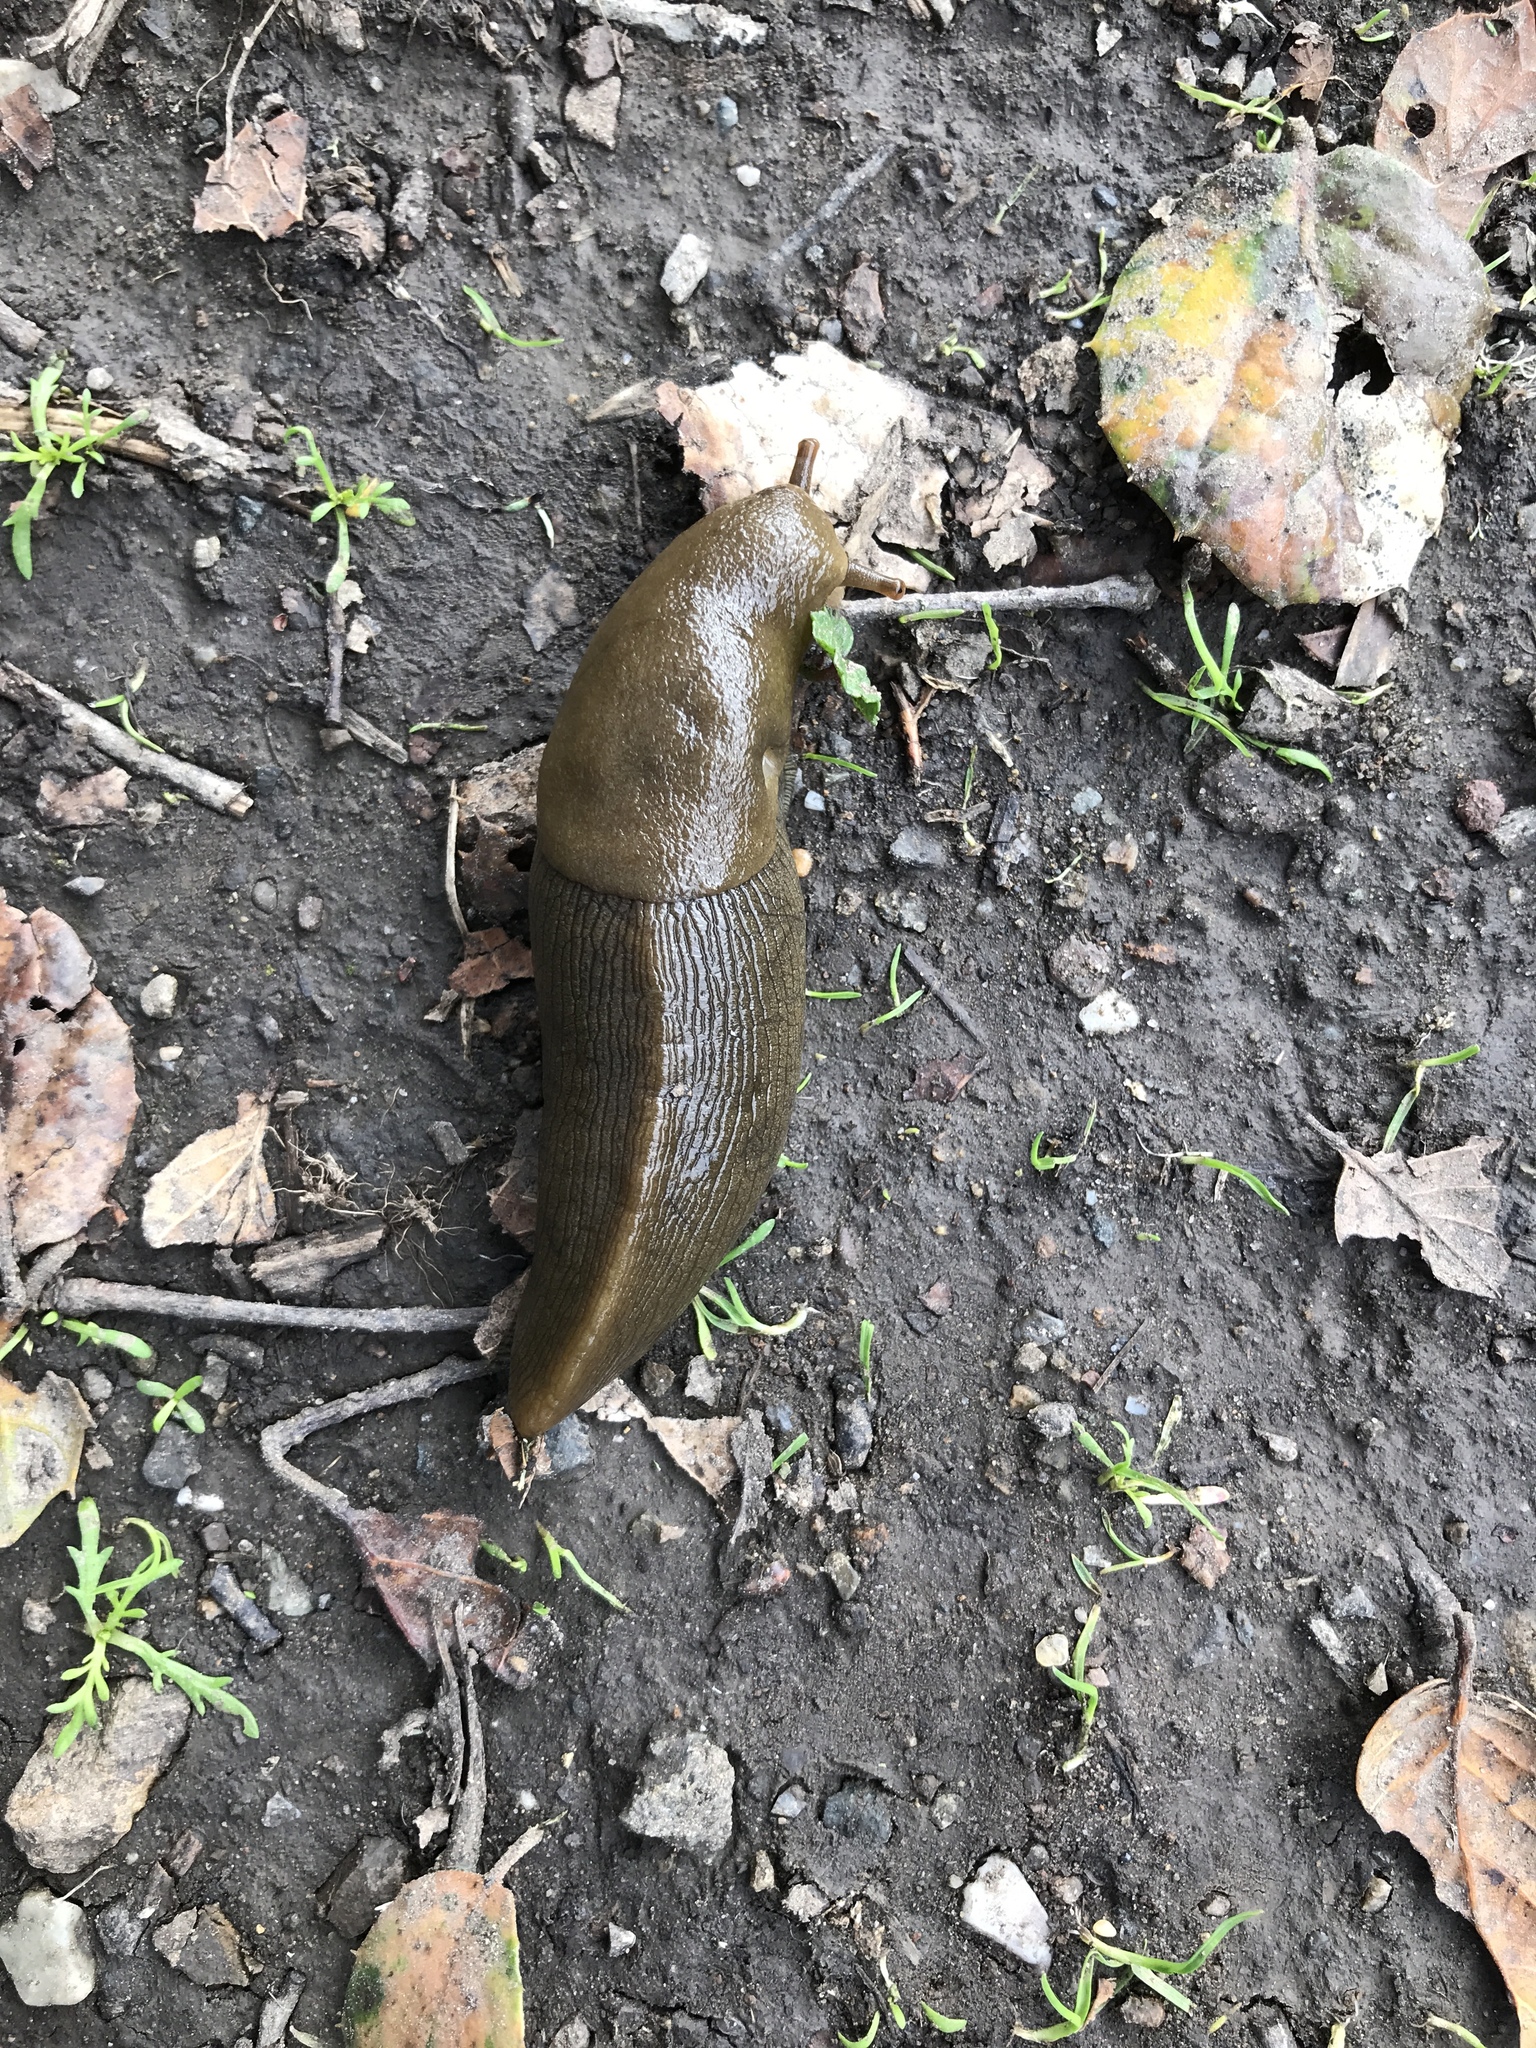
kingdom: Animalia
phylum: Mollusca
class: Gastropoda
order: Stylommatophora
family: Ariolimacidae
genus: Ariolimax
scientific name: Ariolimax buttoni
